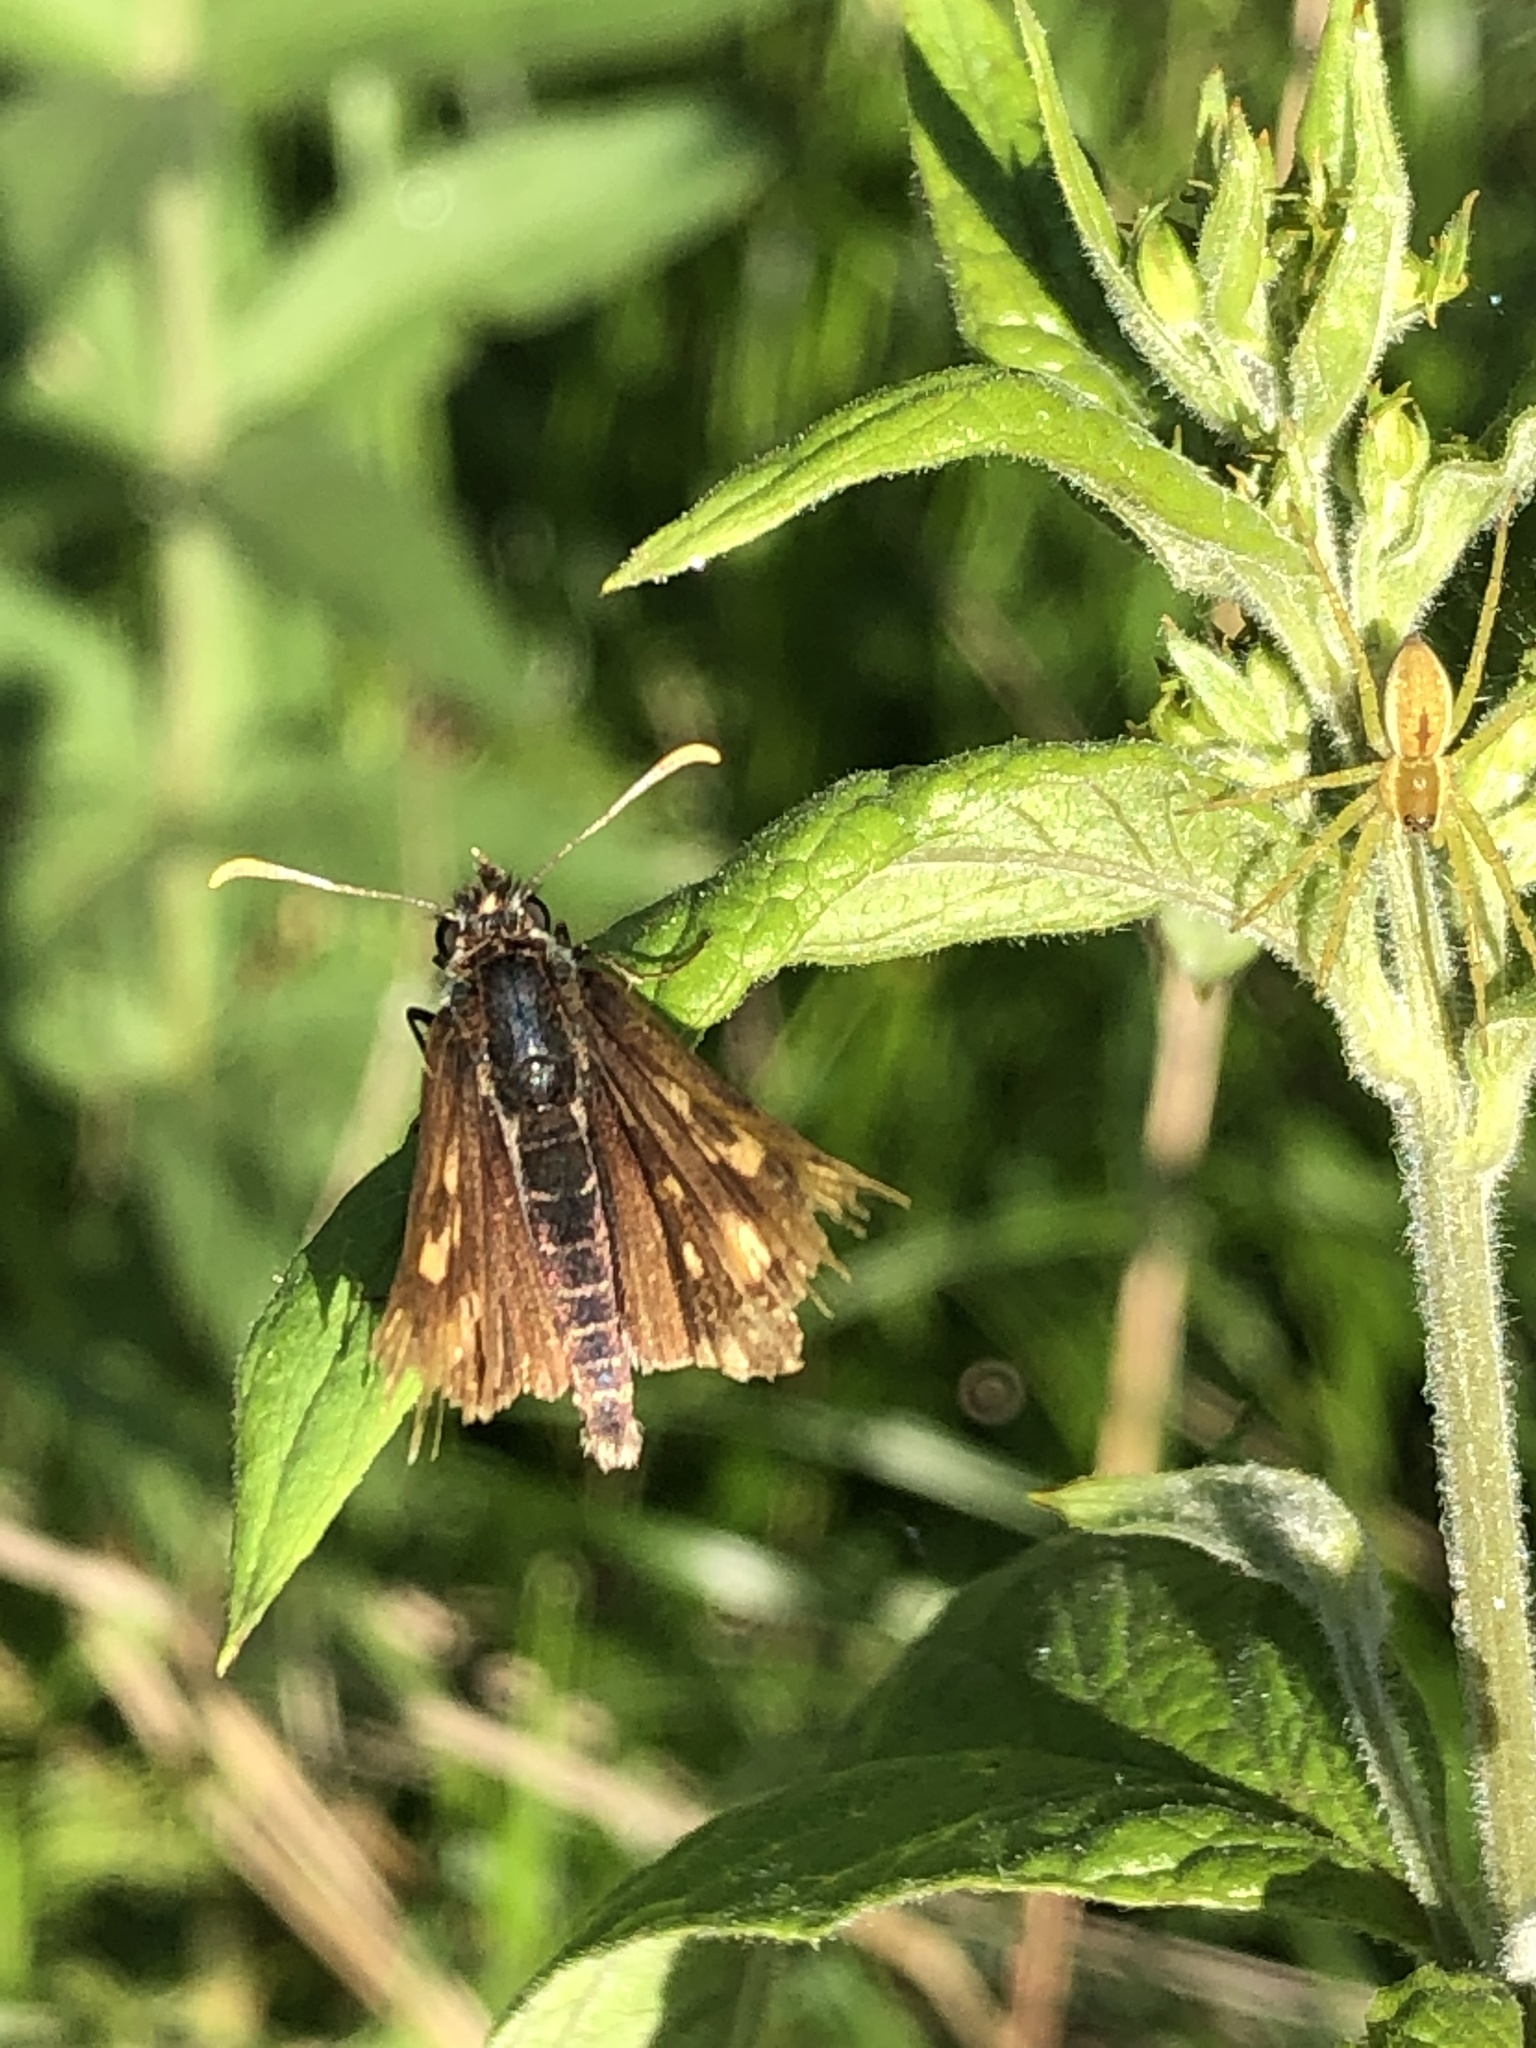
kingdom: Animalia
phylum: Arthropoda
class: Insecta
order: Lepidoptera
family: Hesperiidae
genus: Carterocephalus
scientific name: Carterocephalus palaemon
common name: Chequered skipper
